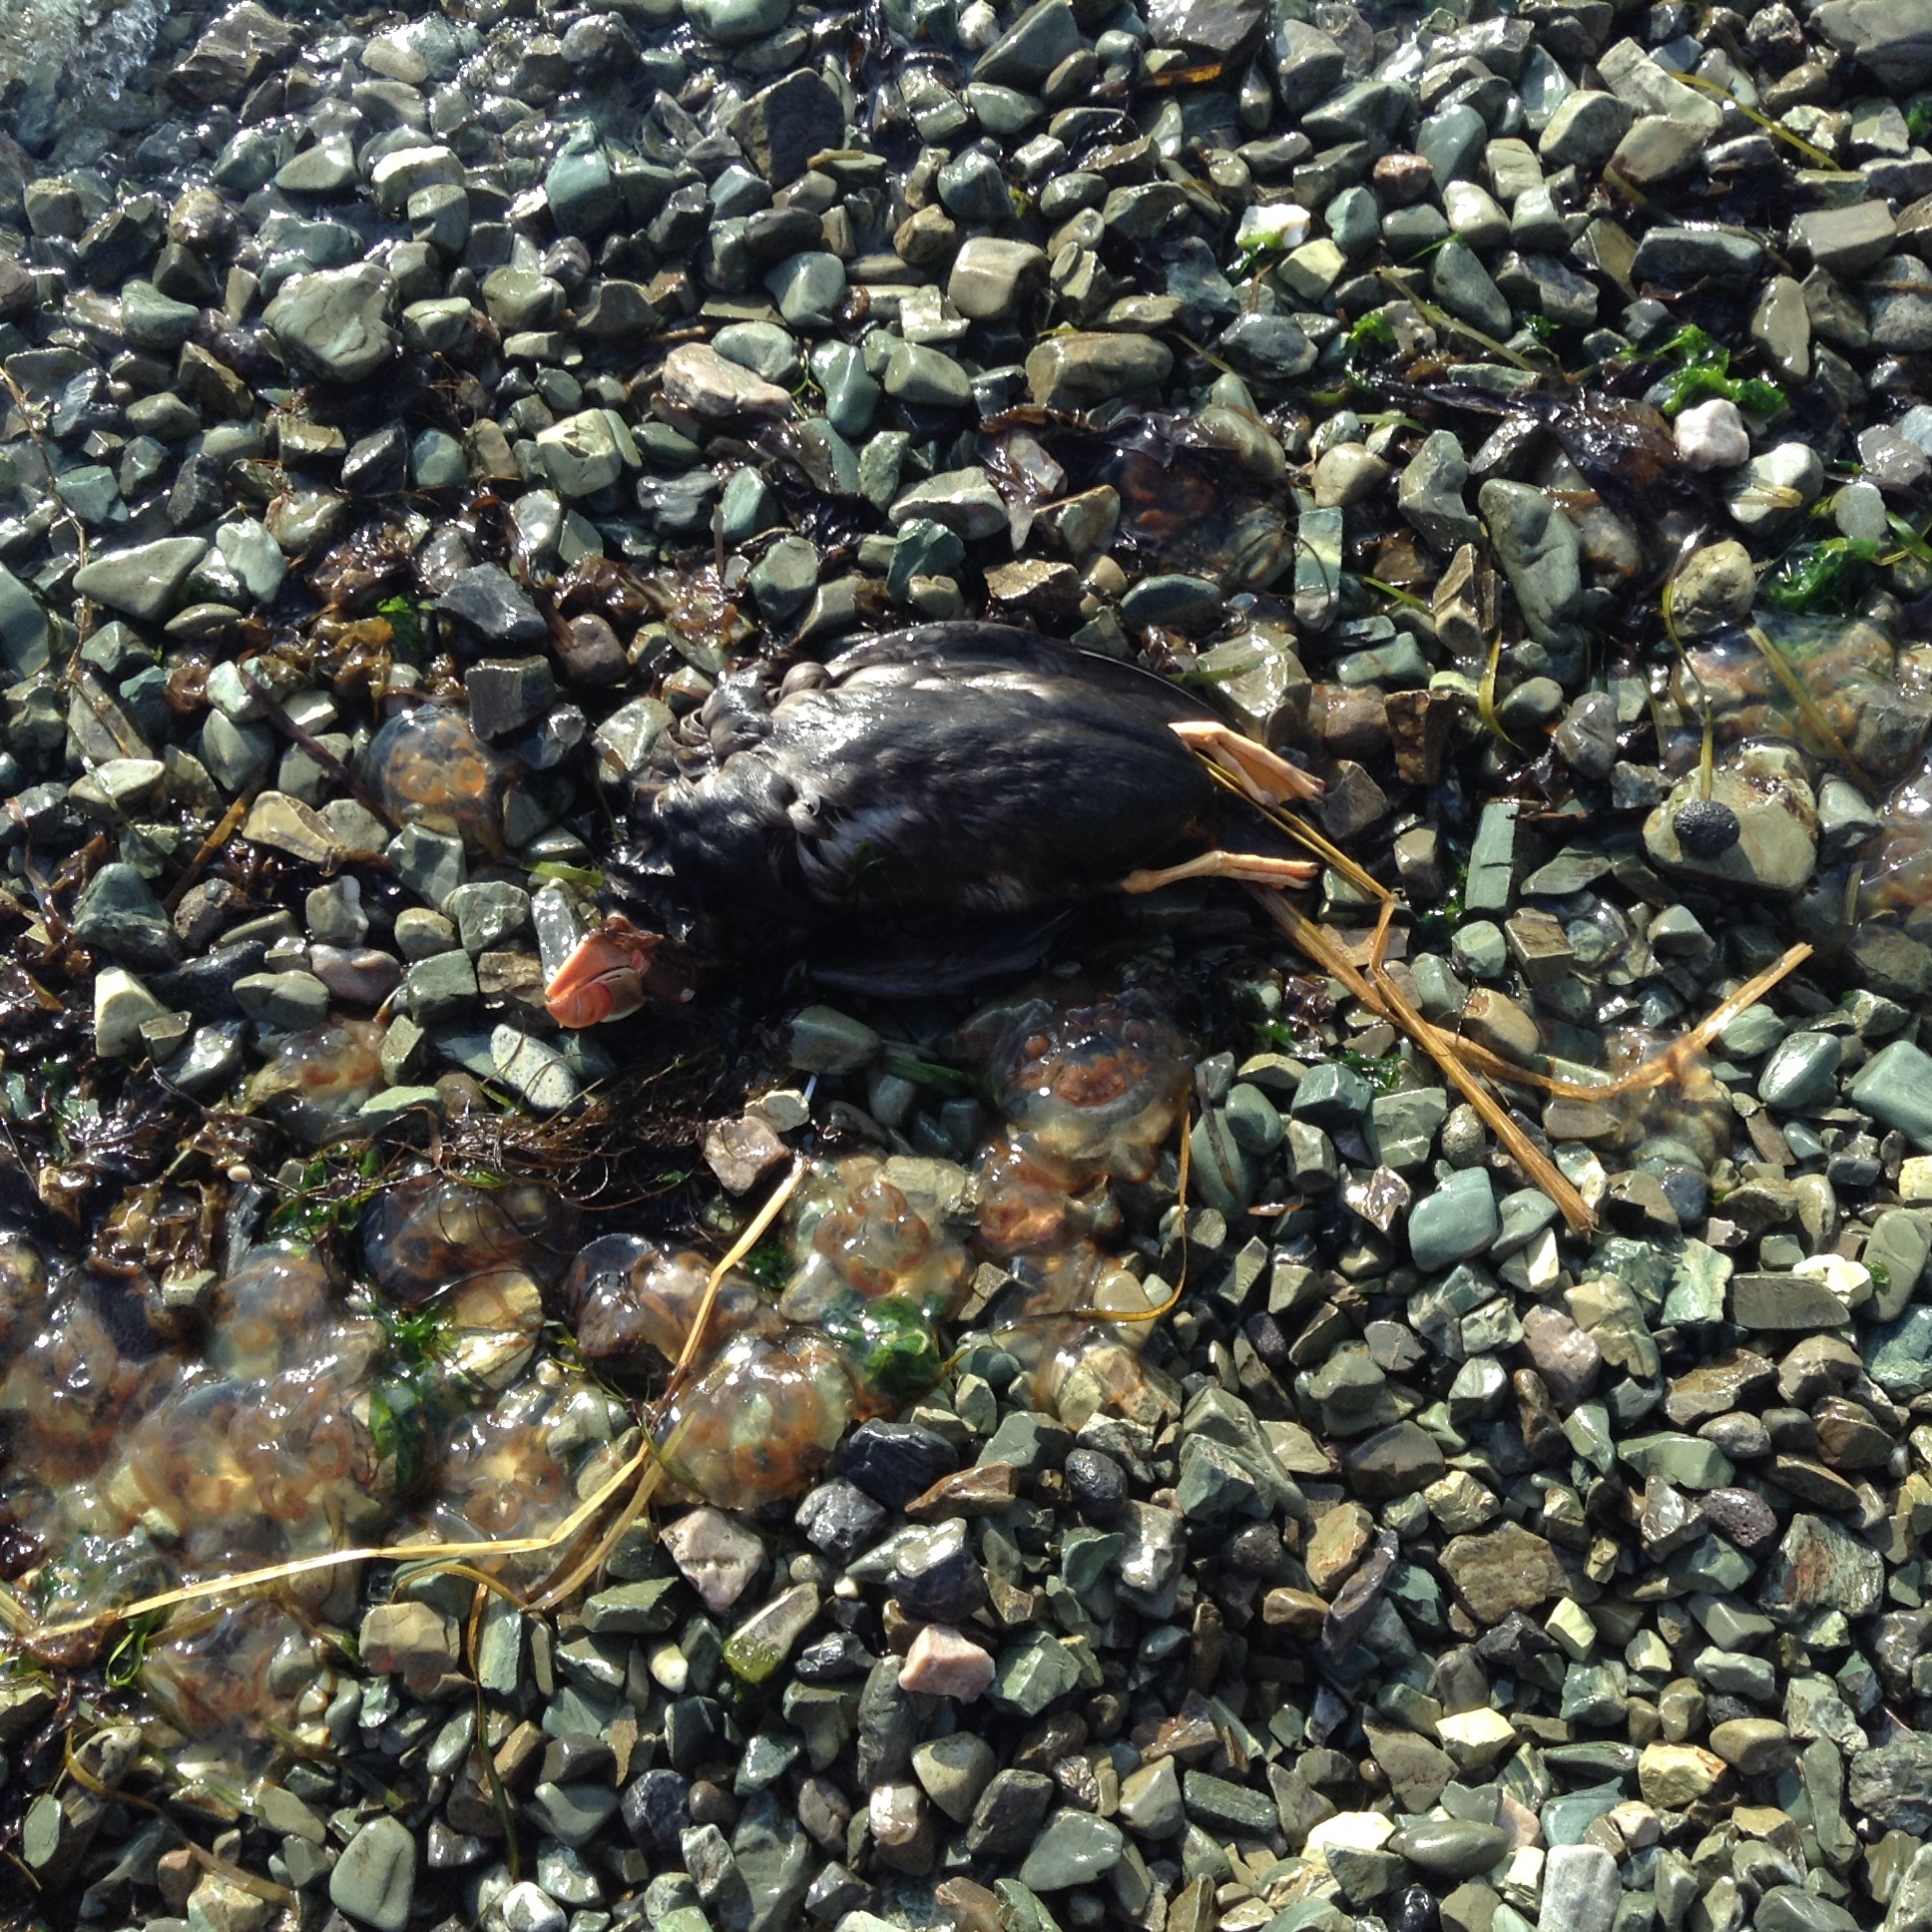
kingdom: Animalia
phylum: Chordata
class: Aves
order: Charadriiformes
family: Alcidae
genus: Fratercula
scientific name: Fratercula cirrhata
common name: Tufted puffin
